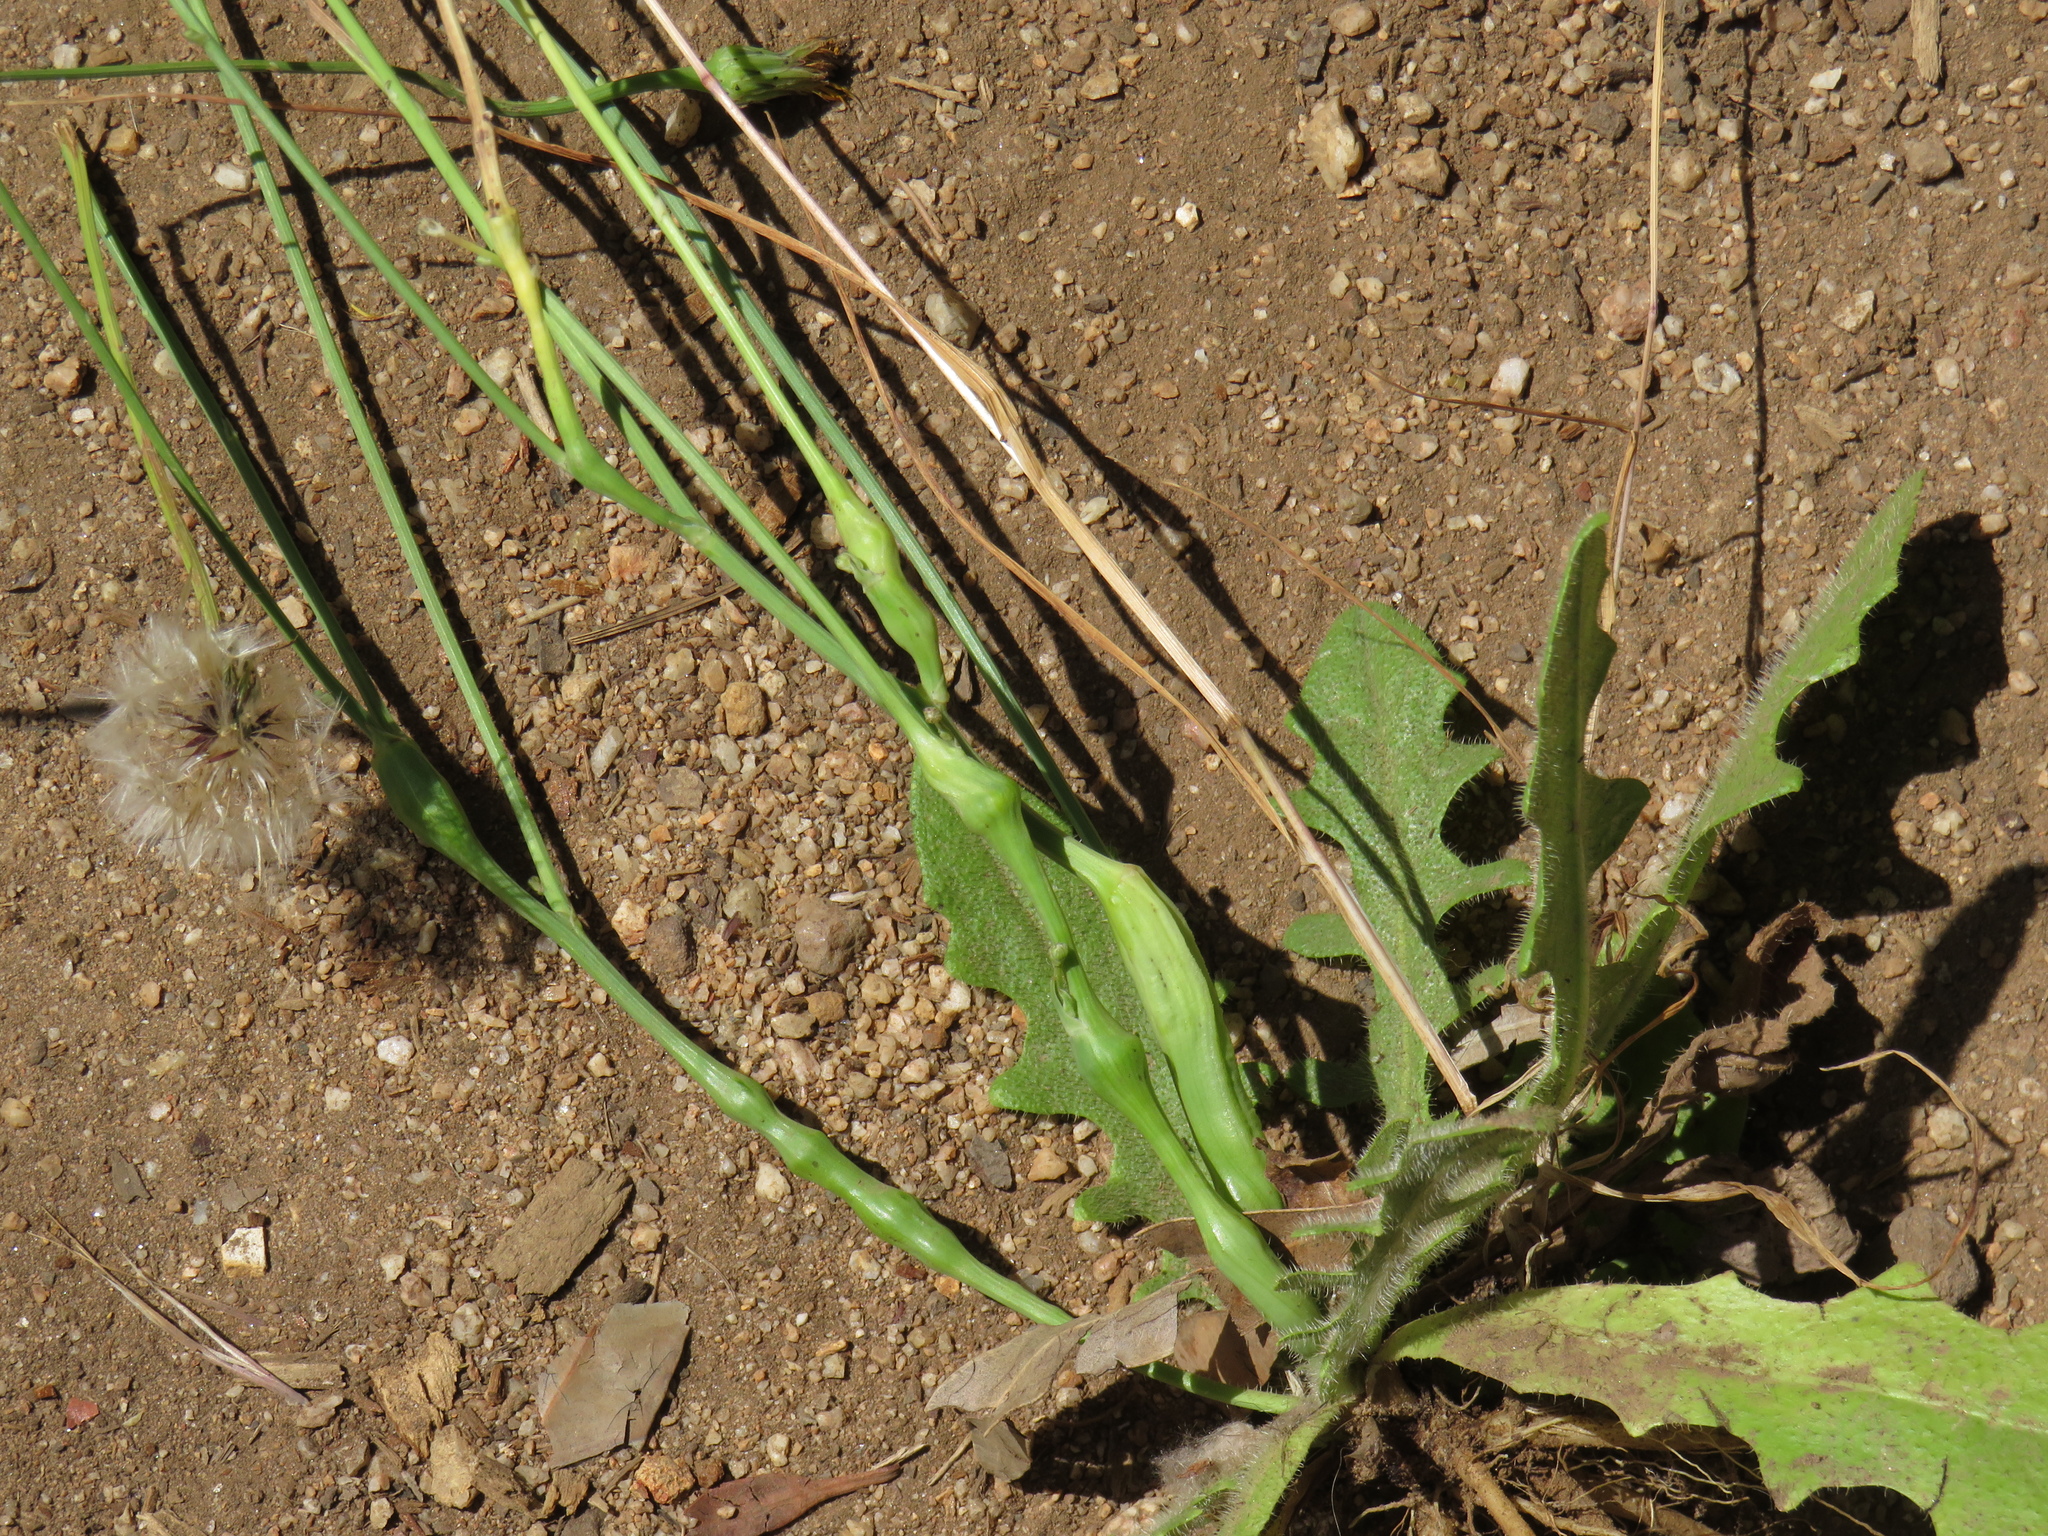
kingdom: Animalia
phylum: Arthropoda
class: Insecta
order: Hymenoptera
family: Cynipidae
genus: Phanacis
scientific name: Phanacis hypochoeridis
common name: Gall wasp
